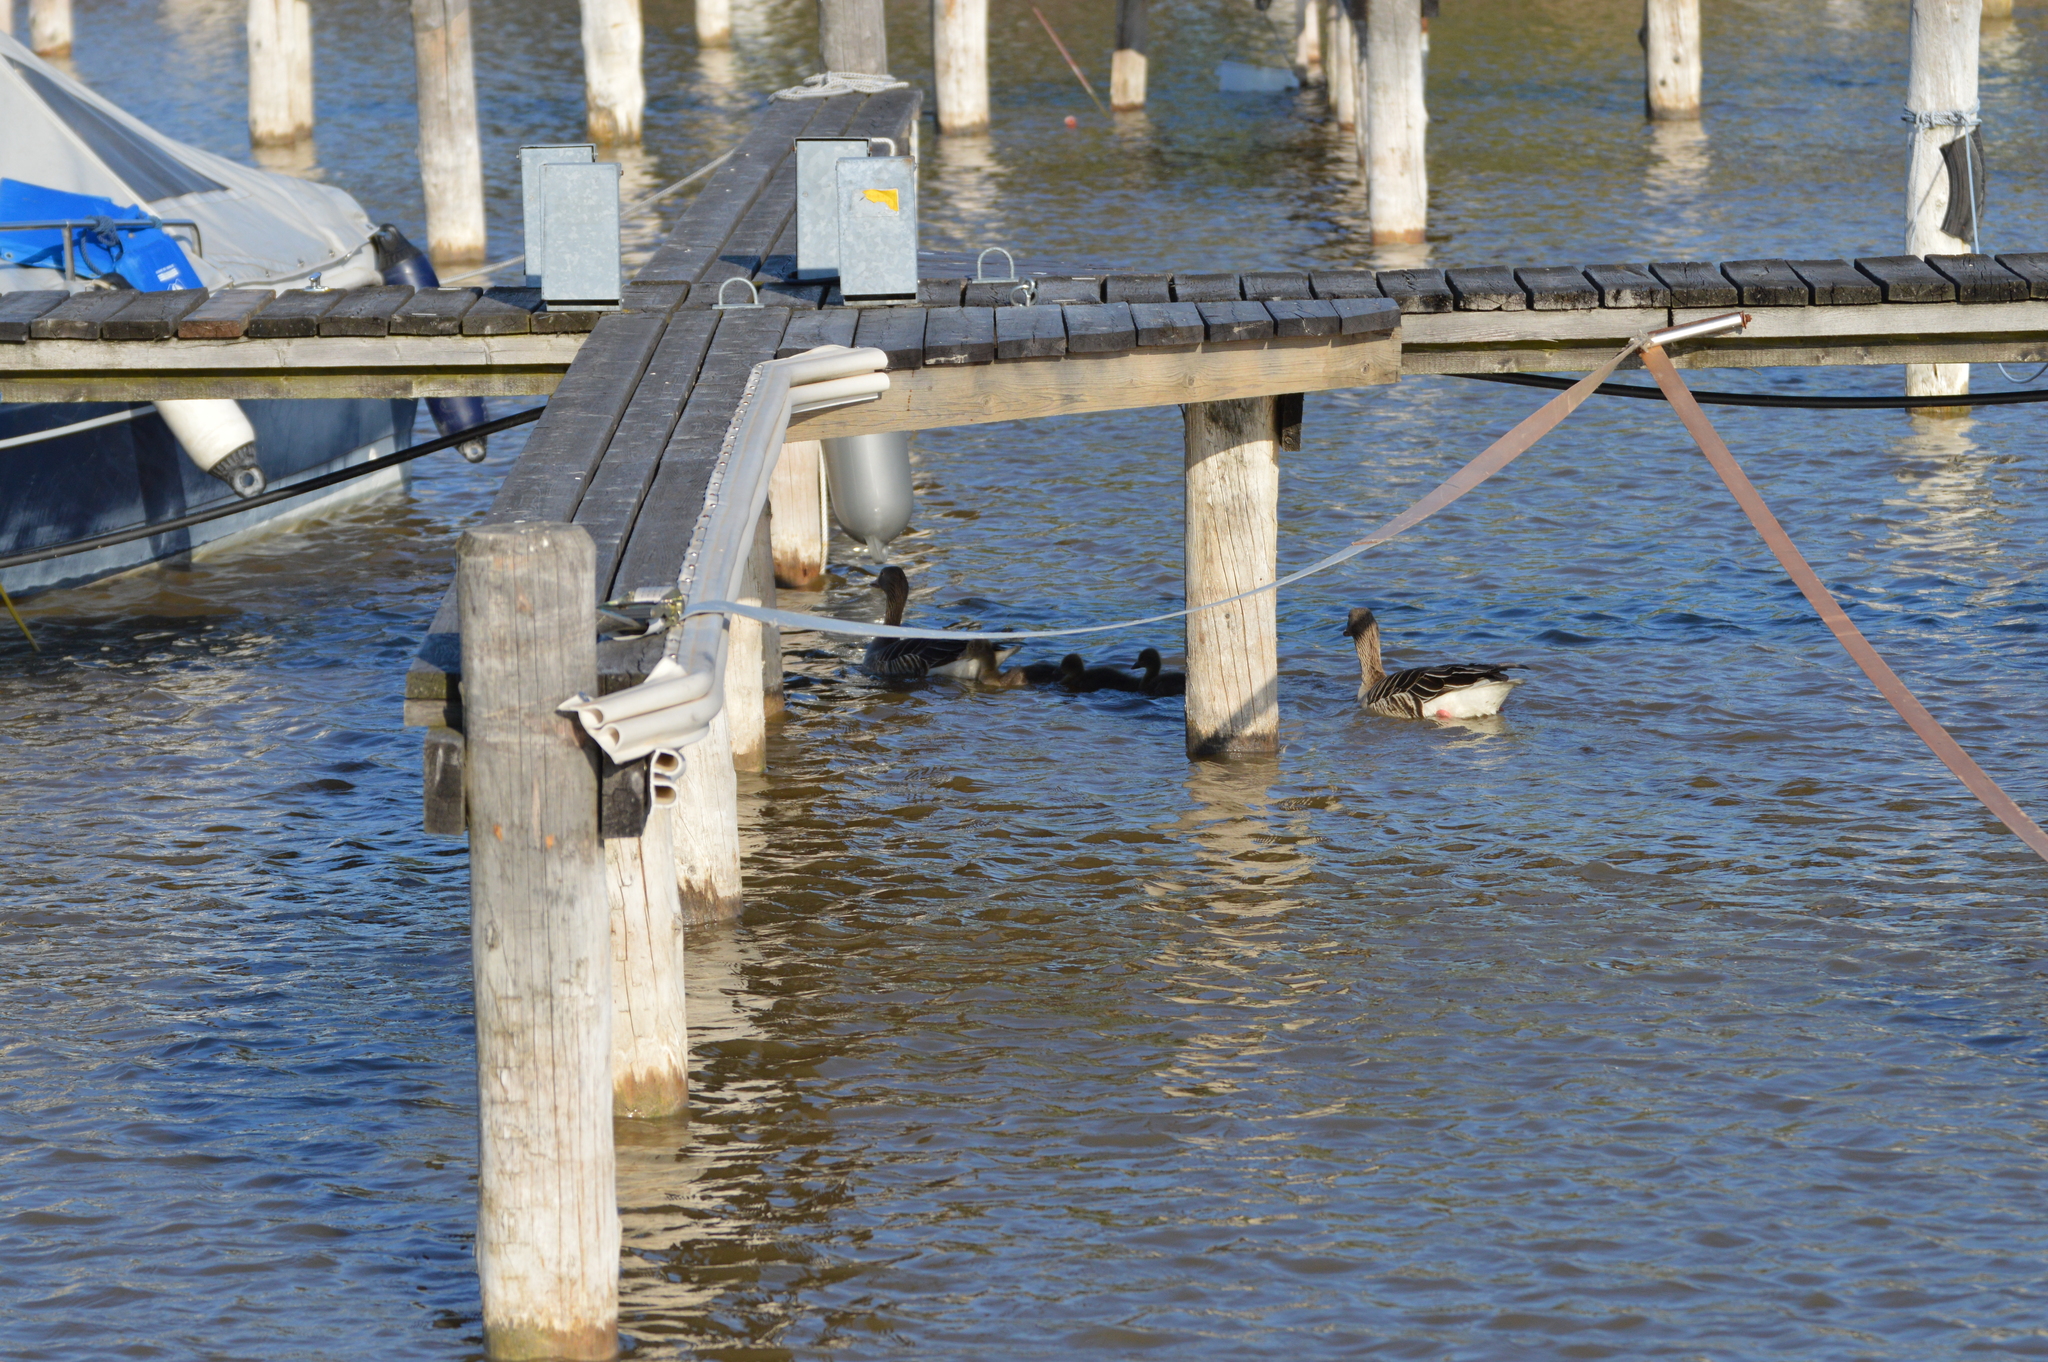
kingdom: Animalia
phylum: Chordata
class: Aves
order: Anseriformes
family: Anatidae
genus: Anser
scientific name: Anser anser
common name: Greylag goose
